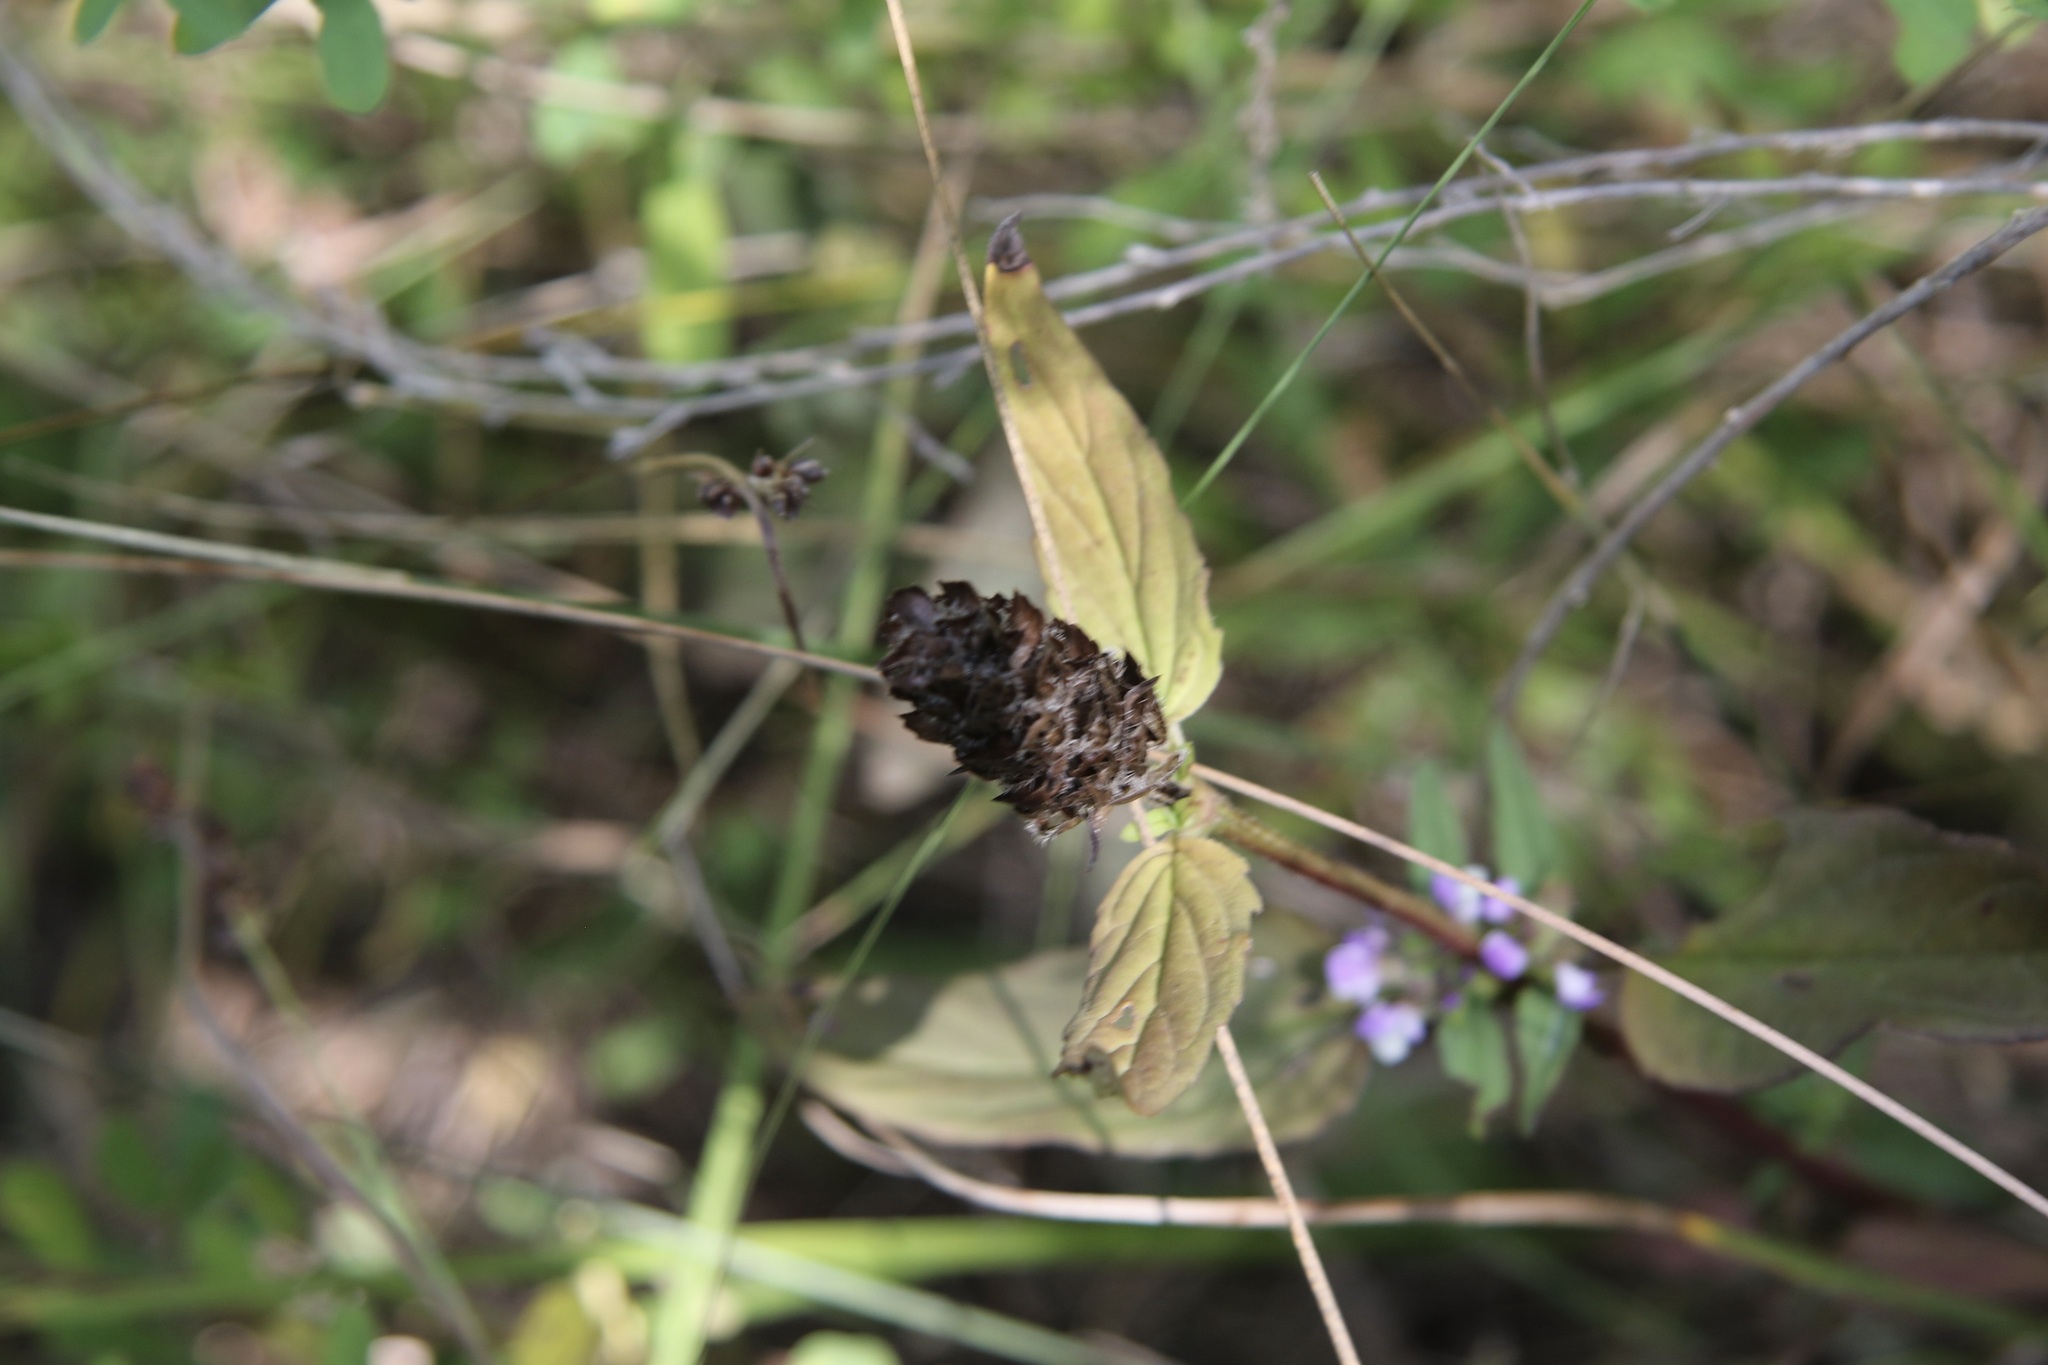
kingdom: Plantae
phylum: Tracheophyta
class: Magnoliopsida
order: Lamiales
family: Lamiaceae
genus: Prunella
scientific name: Prunella vulgaris
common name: Heal-all
